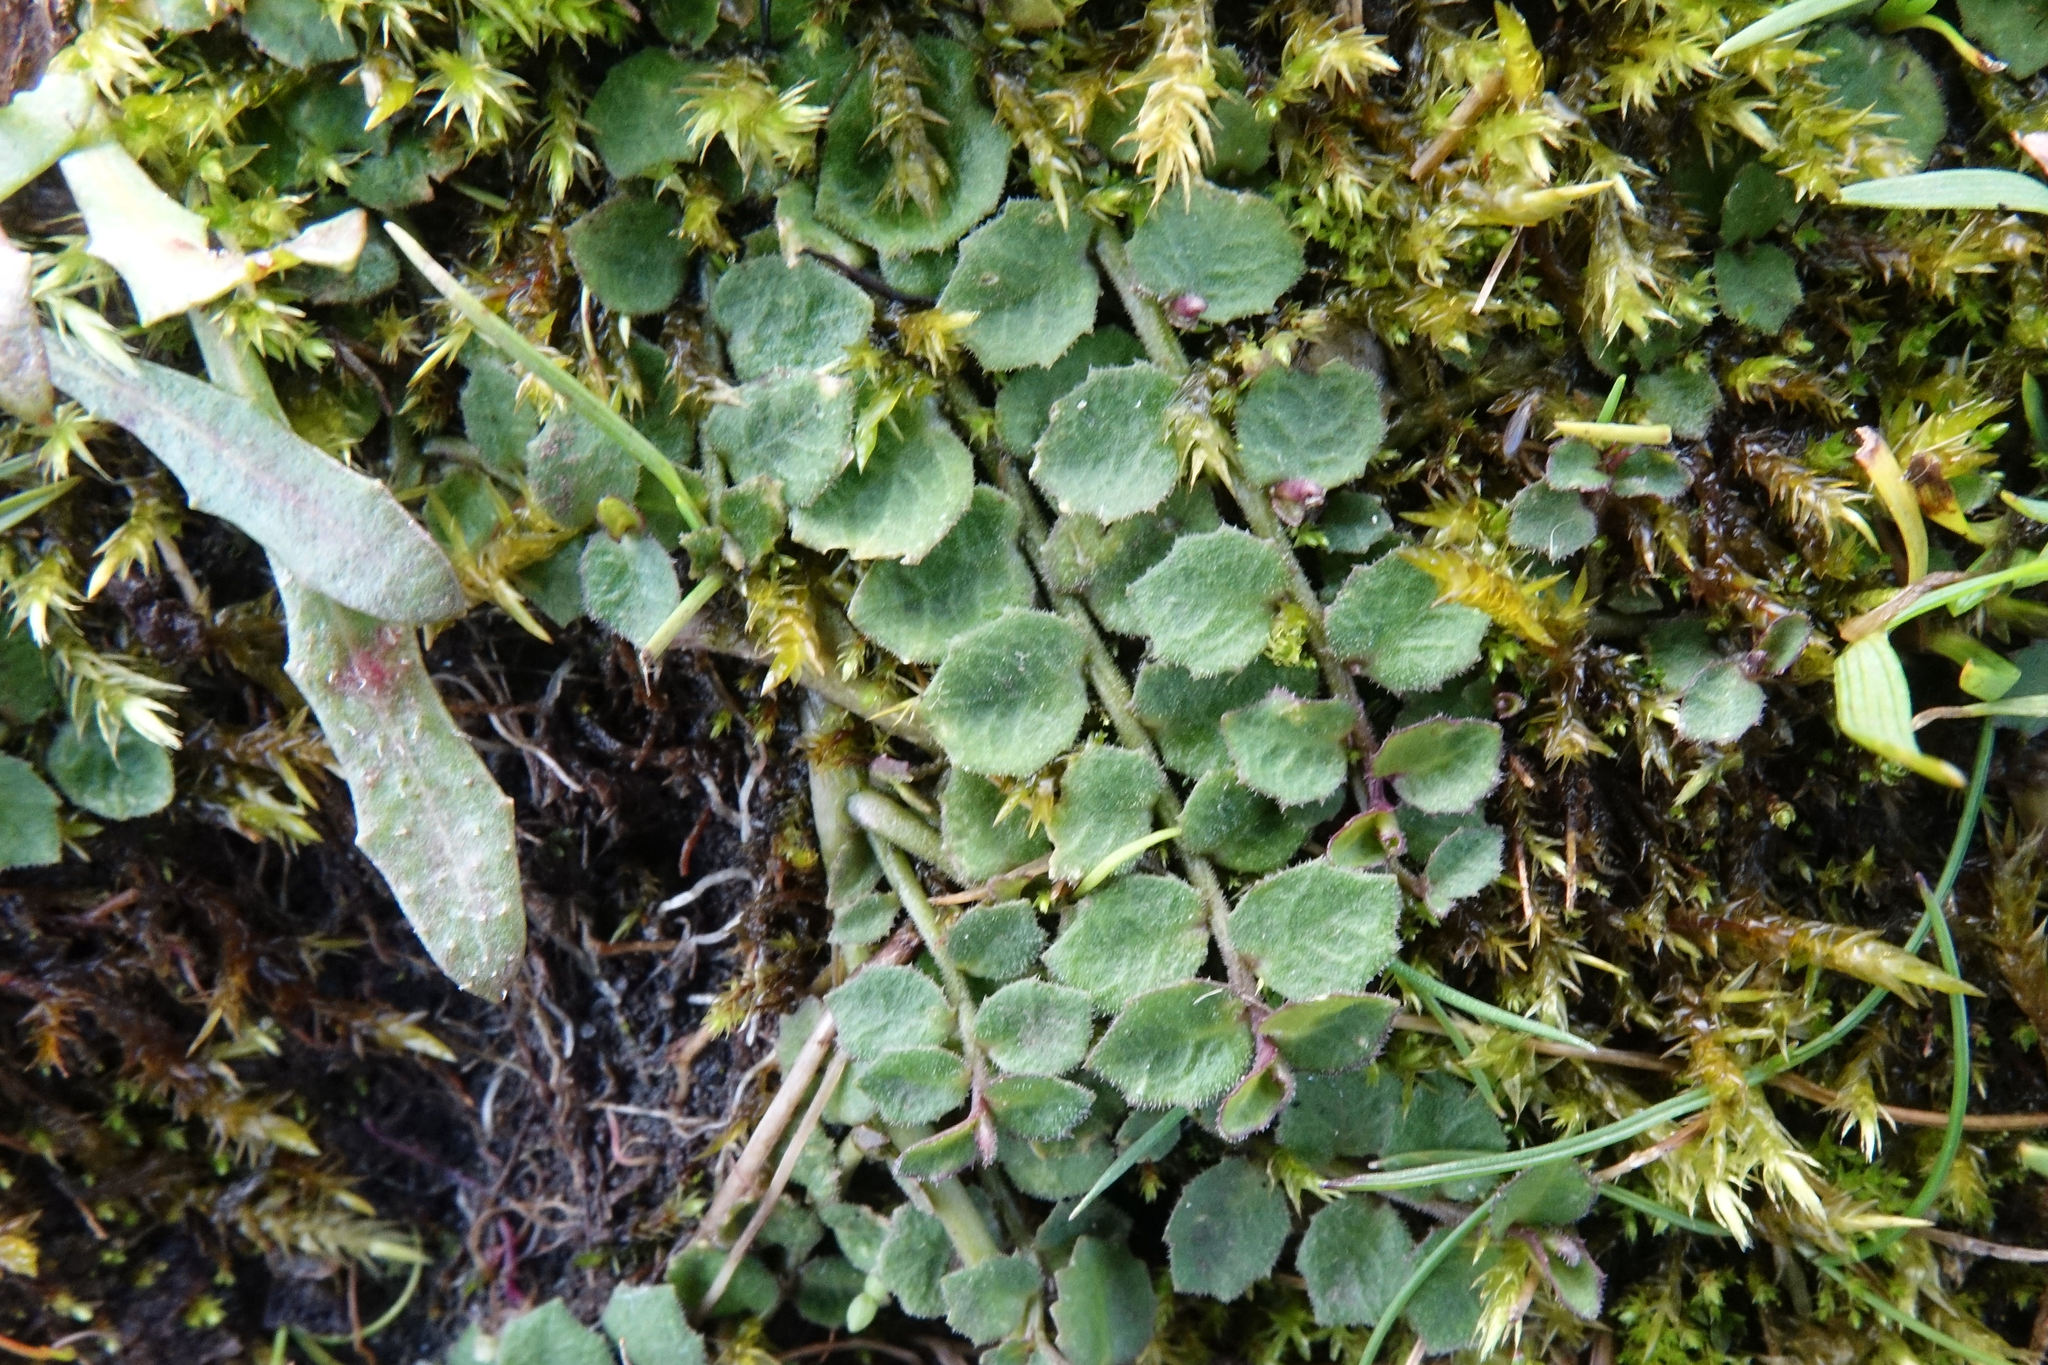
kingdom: Plantae
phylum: Tracheophyta
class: Magnoliopsida
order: Asterales
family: Campanulaceae
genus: Lobelia
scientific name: Lobelia pedunculata
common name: Matted pratia
